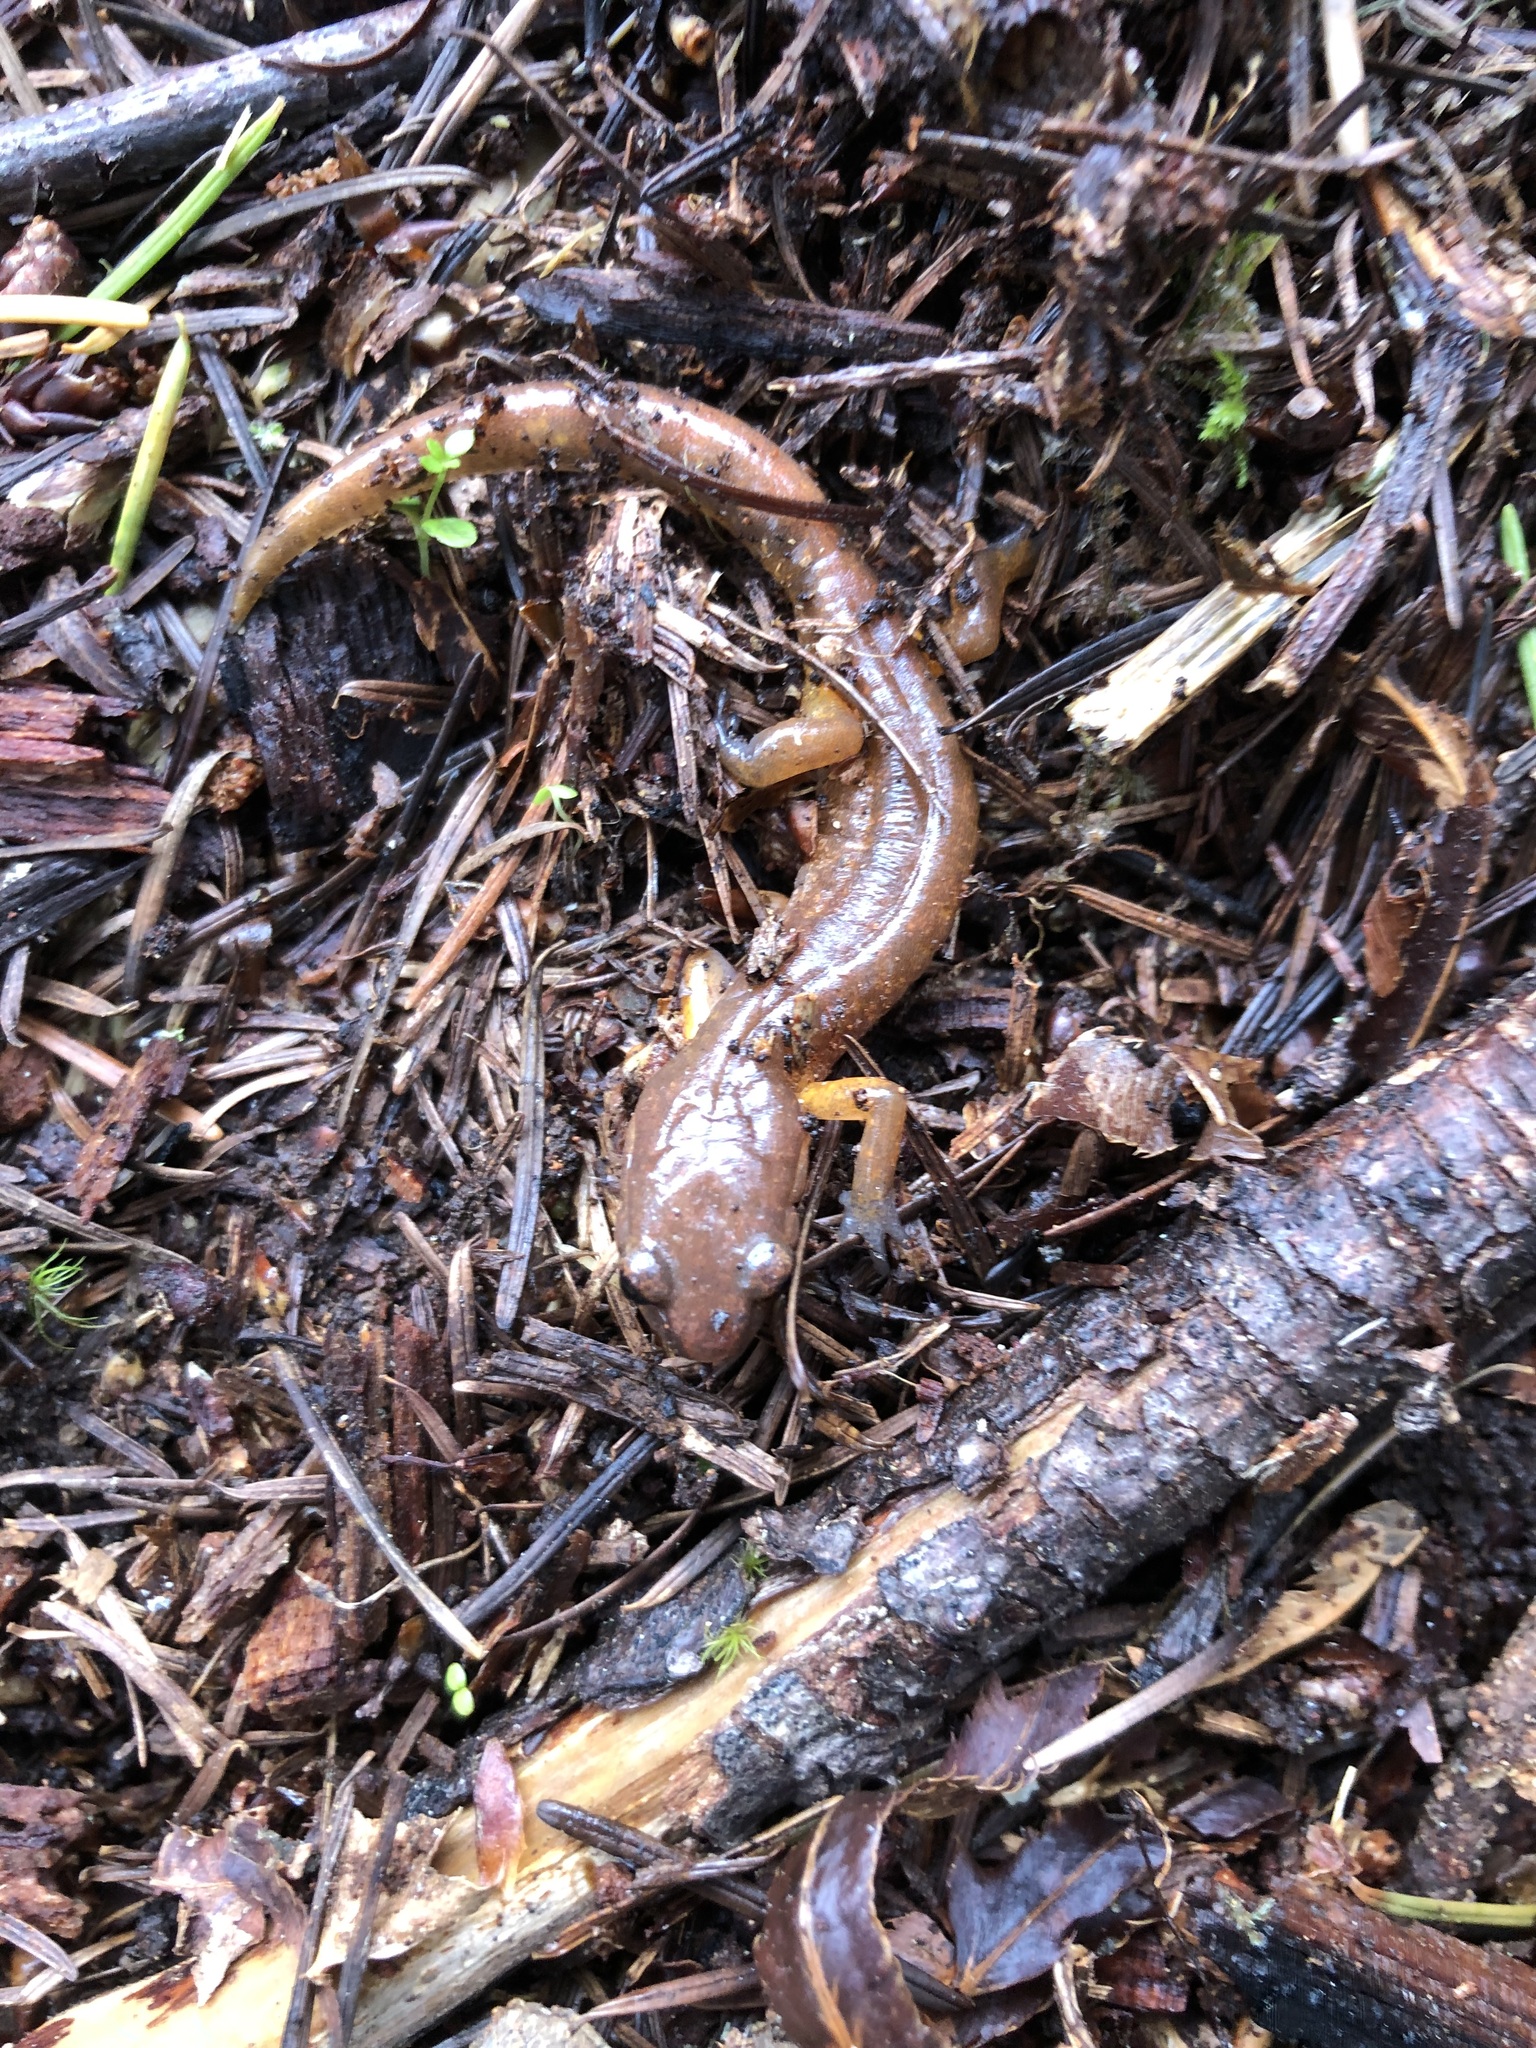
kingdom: Animalia
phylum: Chordata
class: Amphibia
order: Caudata
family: Plethodontidae
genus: Ensatina
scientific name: Ensatina eschscholtzii
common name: Ensatina
